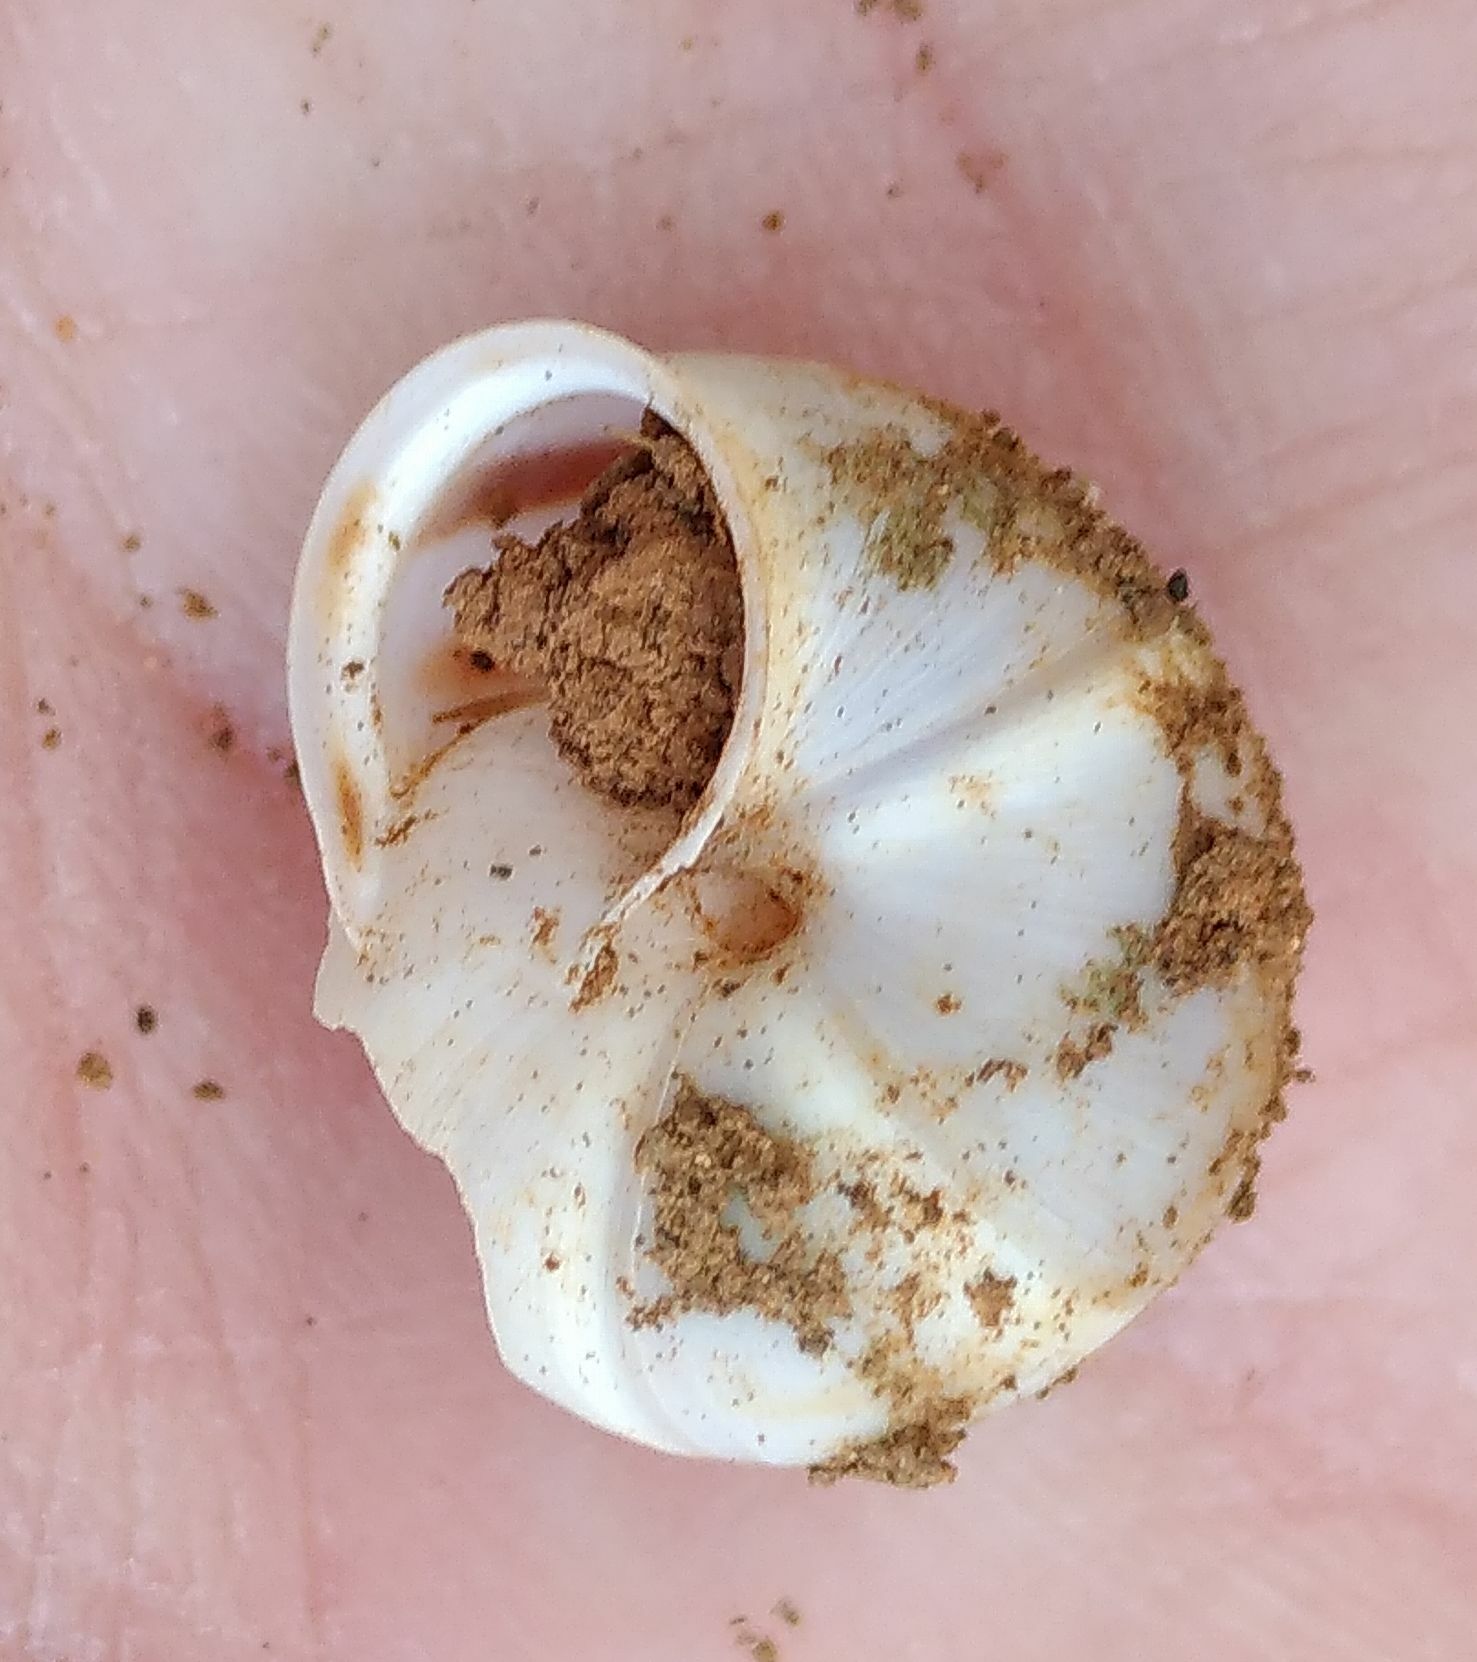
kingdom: Animalia
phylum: Mollusca
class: Gastropoda
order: Stylommatophora
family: Hygromiidae
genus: Metafruticicola
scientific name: Metafruticicola sublecta
